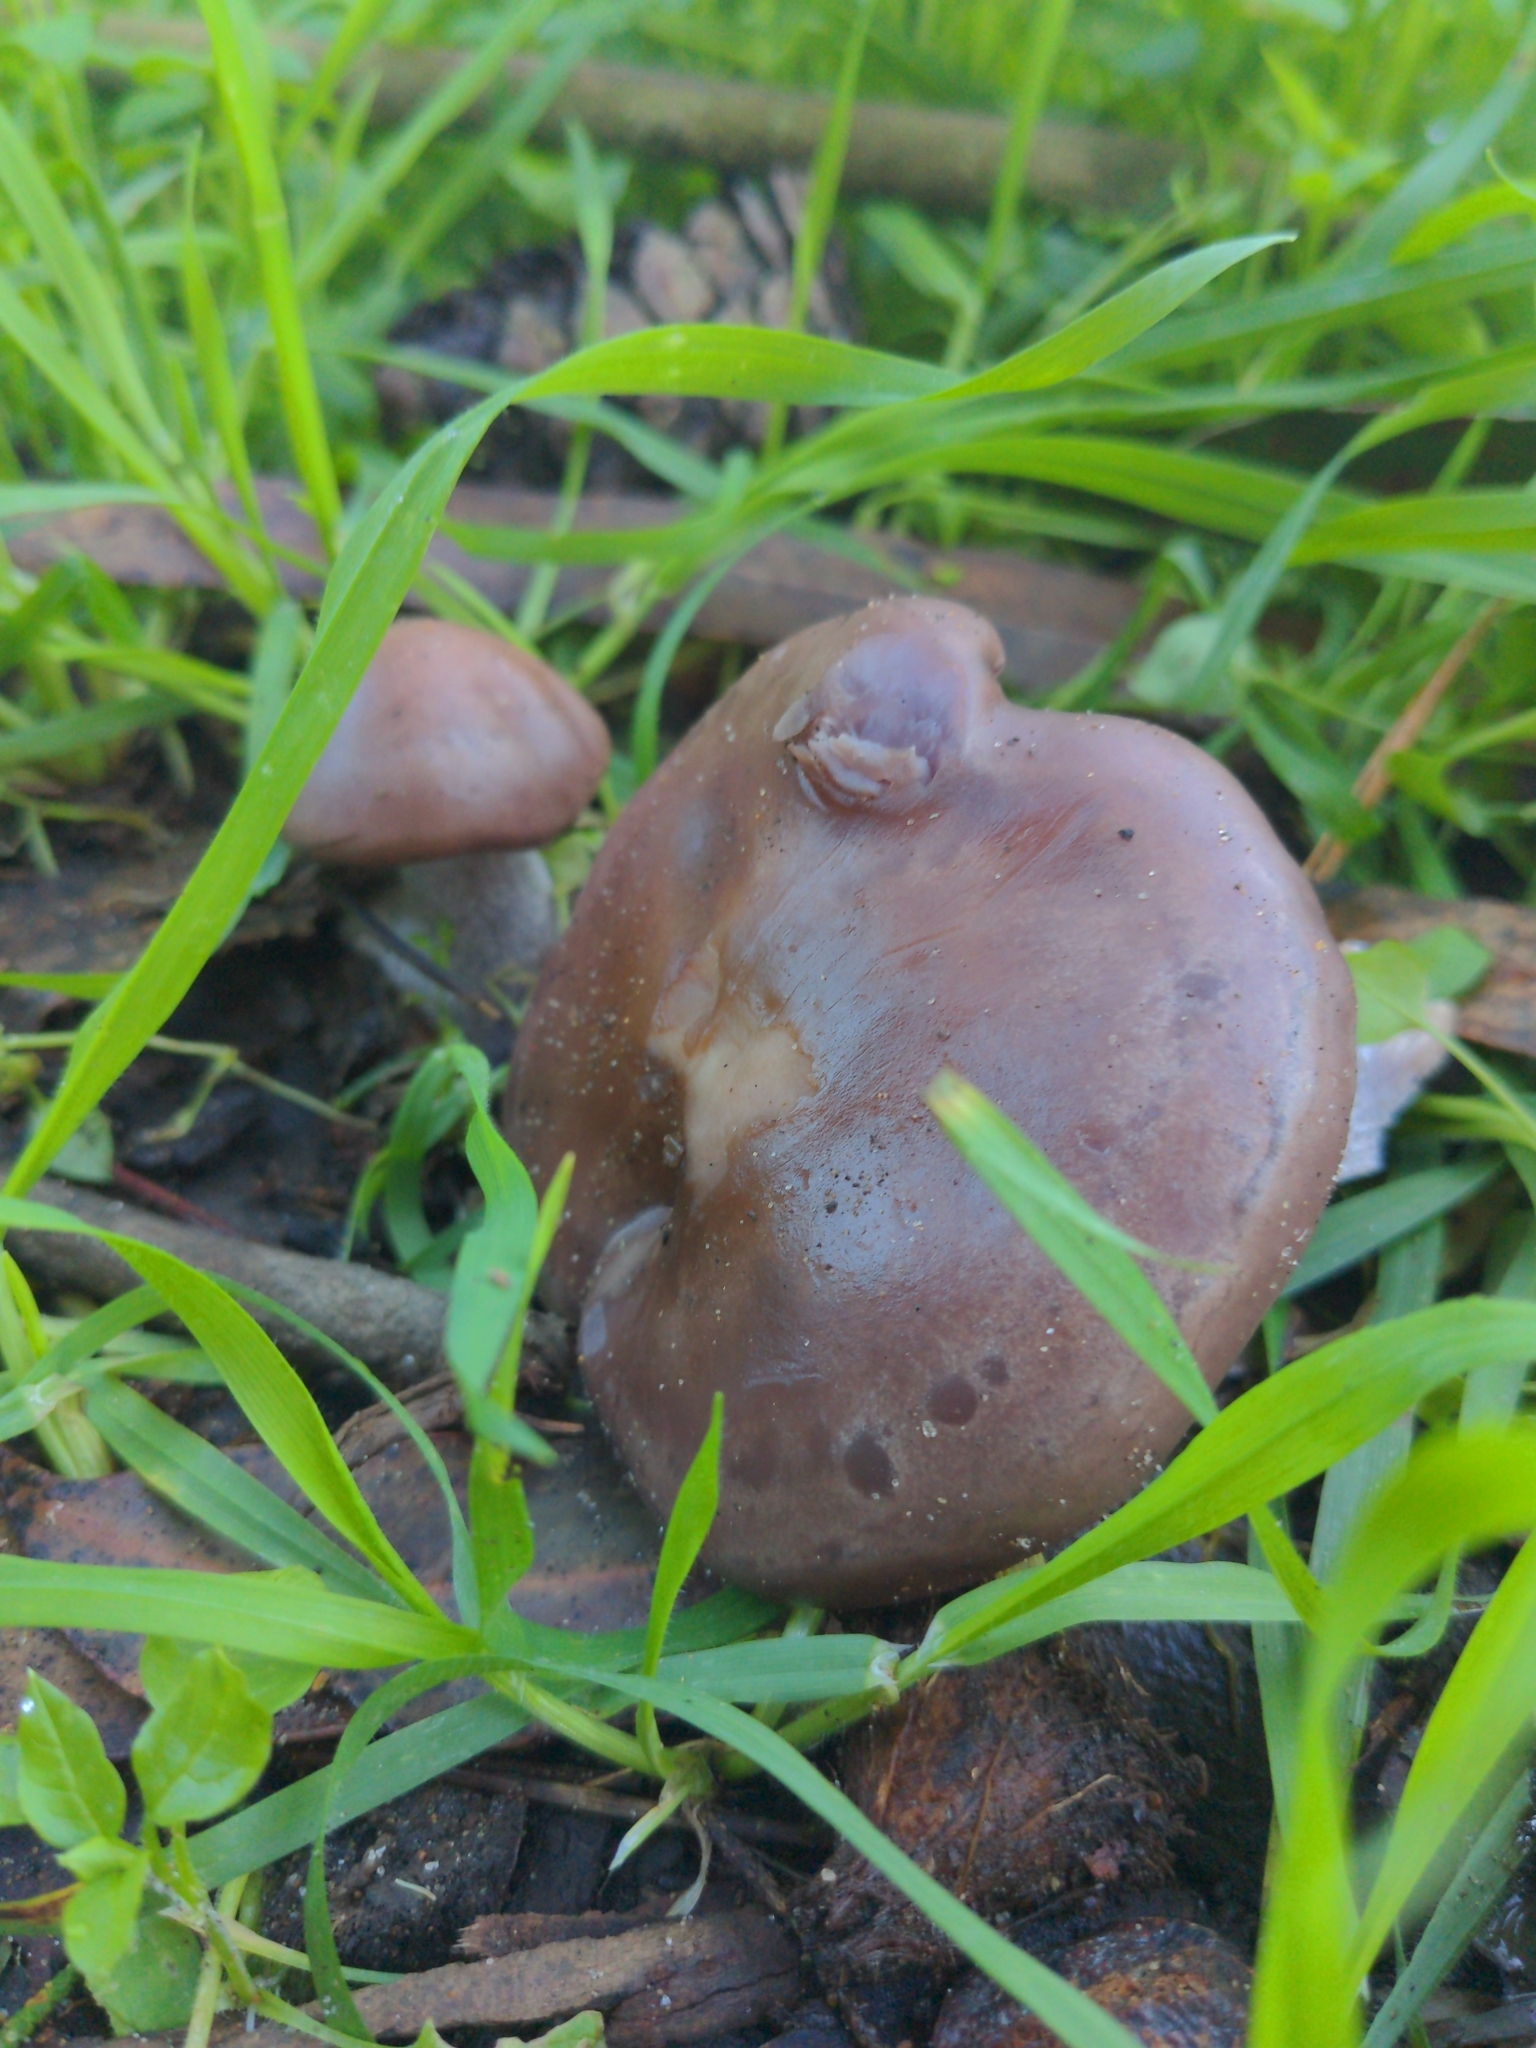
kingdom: Fungi
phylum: Basidiomycota
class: Agaricomycetes
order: Agaricales
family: Tricholomataceae
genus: Collybia
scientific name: Collybia
